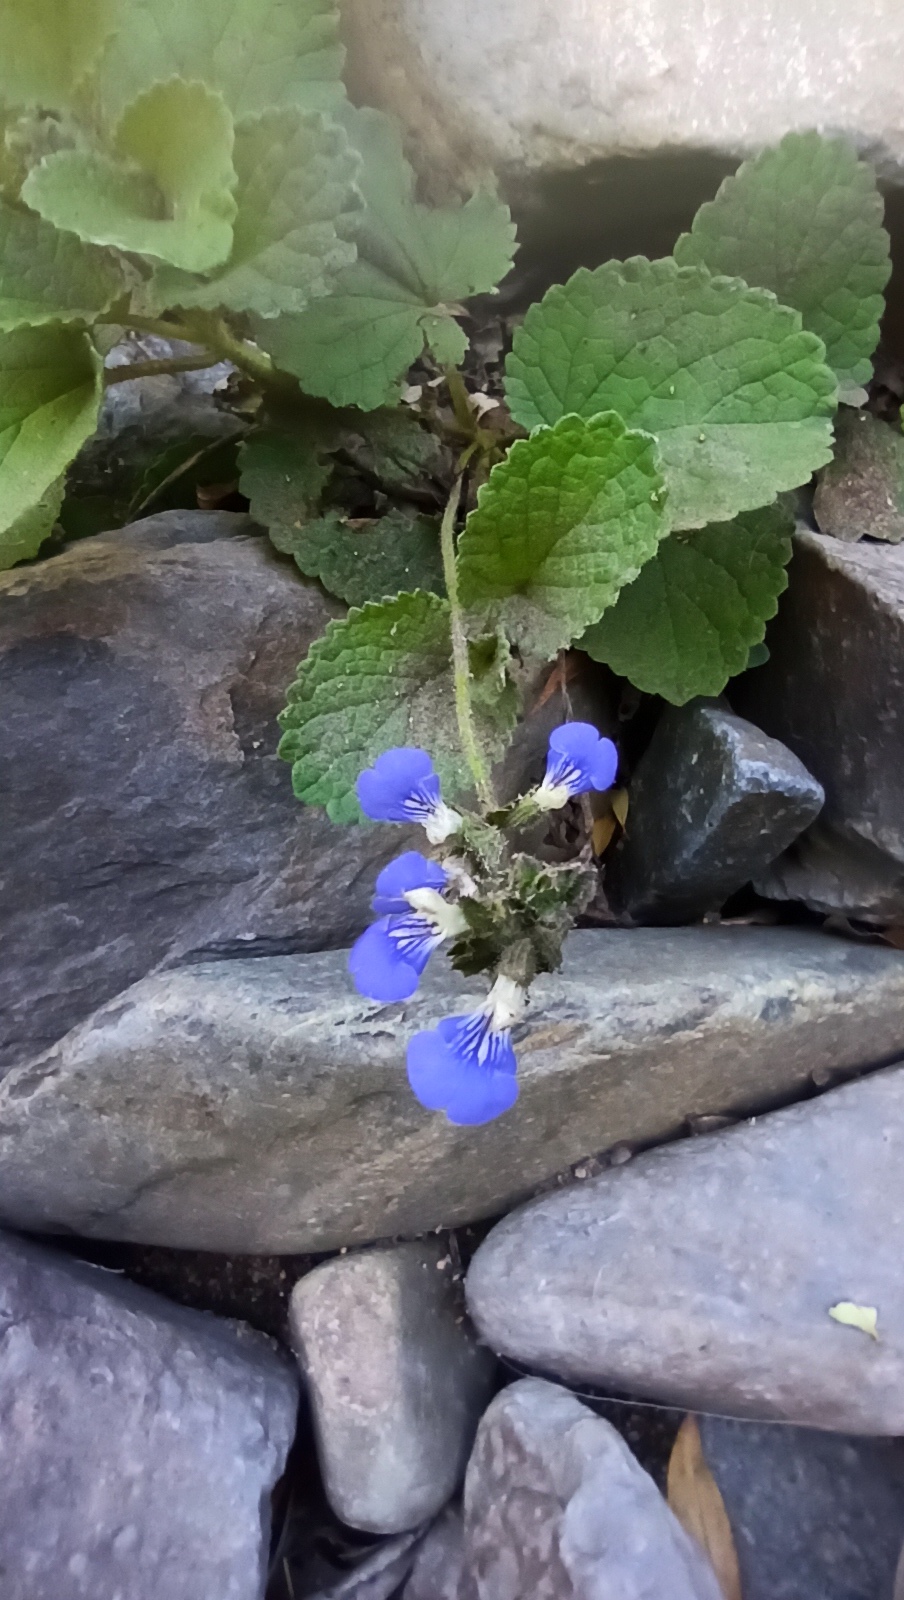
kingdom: Plantae
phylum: Tracheophyta
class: Magnoliopsida
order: Lamiales
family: Lamiaceae
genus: Salvia
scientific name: Salvia procurrens
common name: Blue creeper
